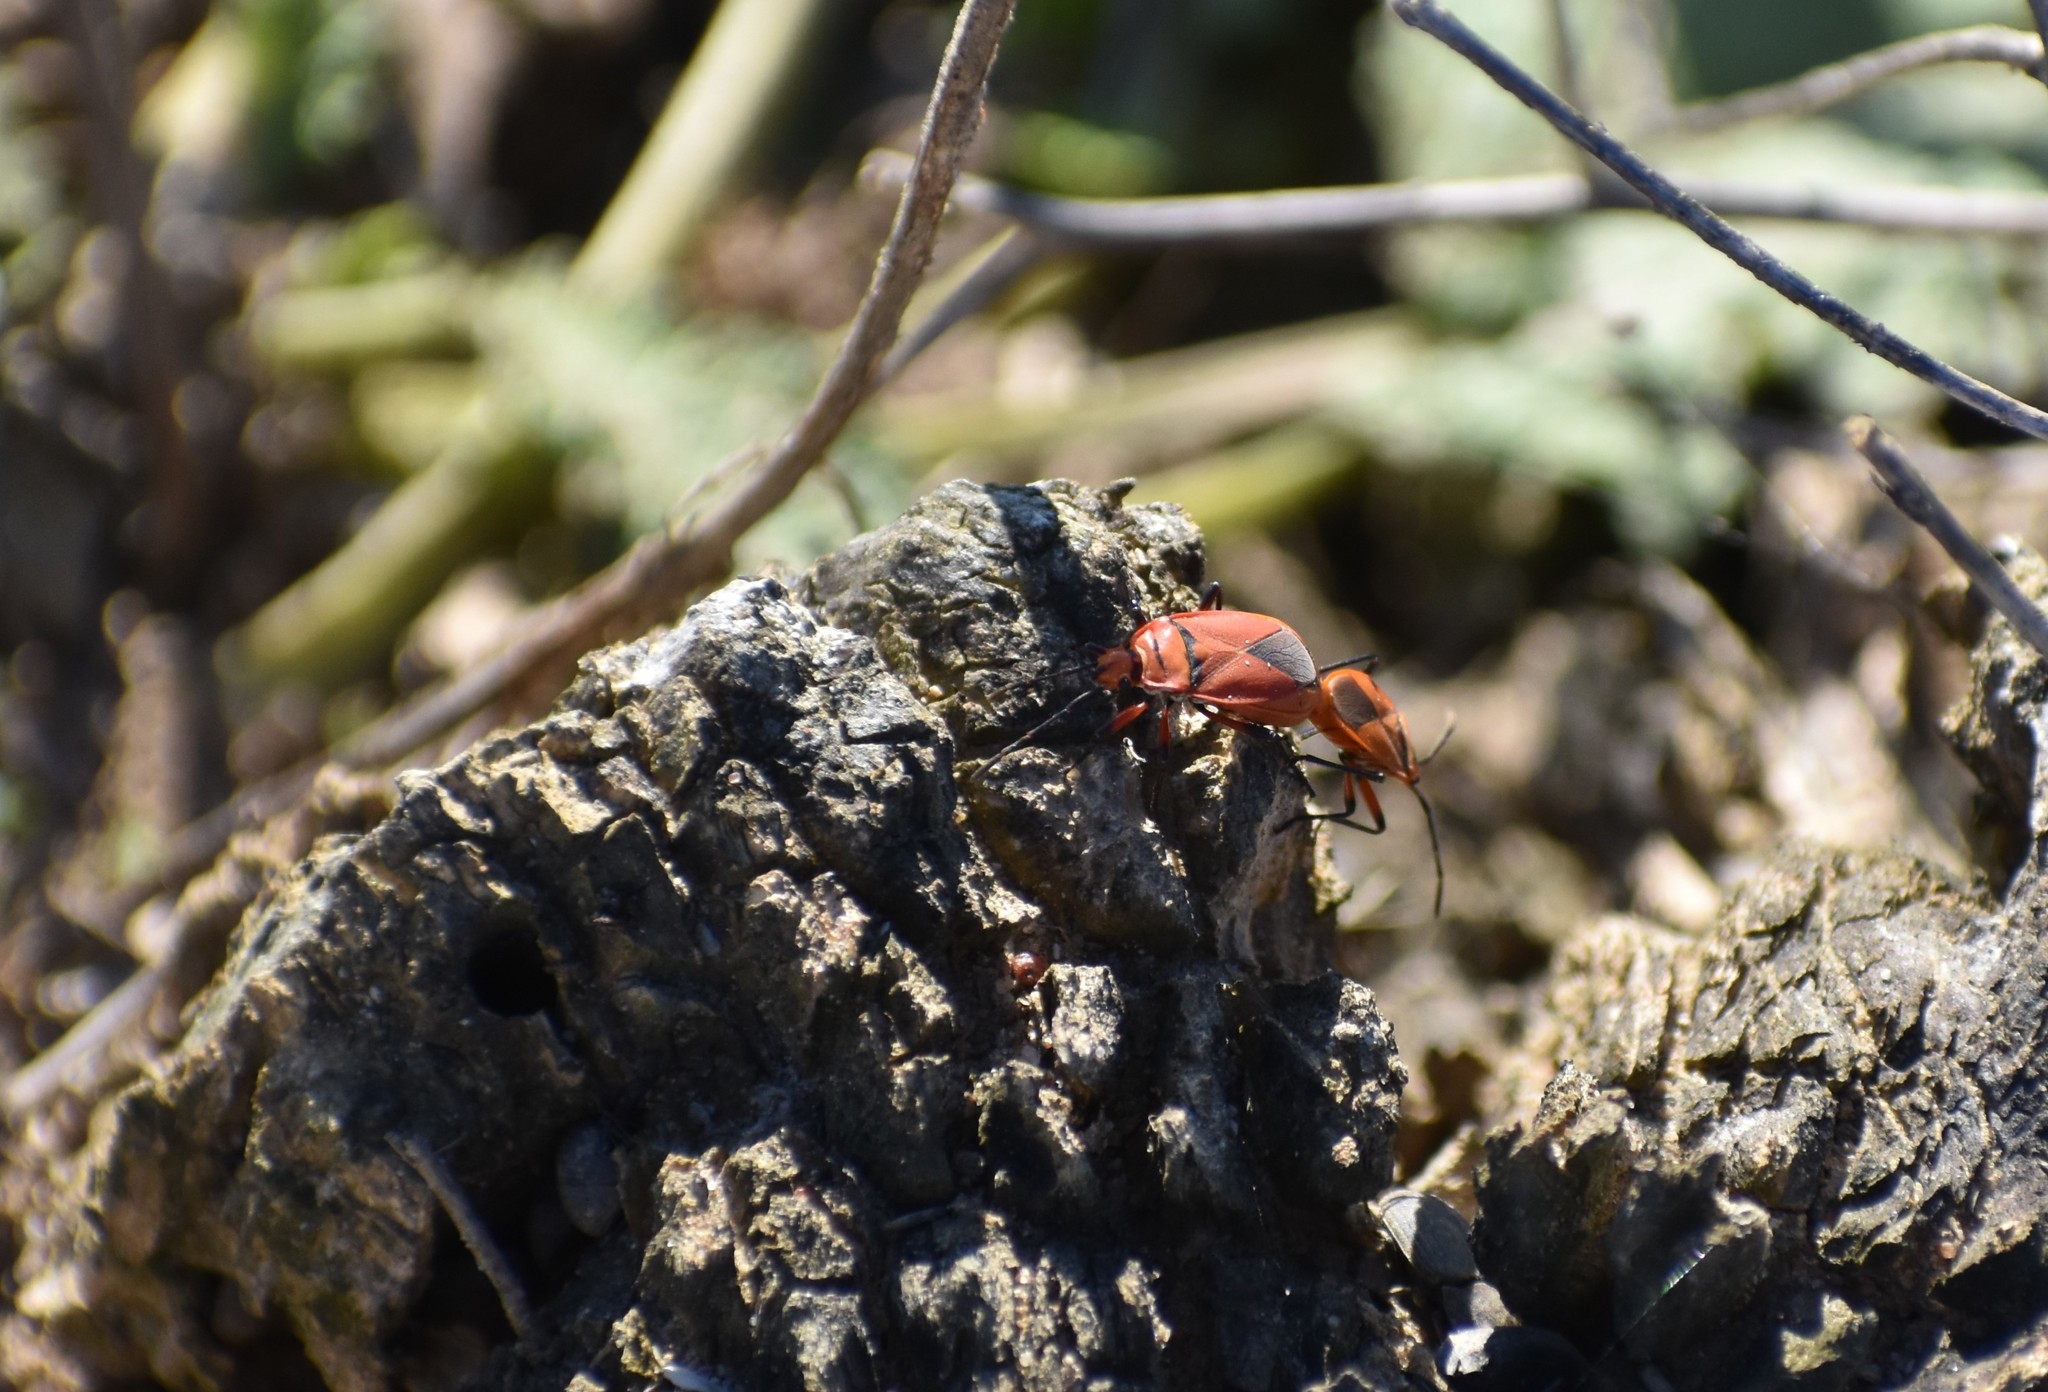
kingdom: Animalia
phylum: Arthropoda
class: Insecta
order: Hemiptera
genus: Cenaeus
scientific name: Cenaeus
